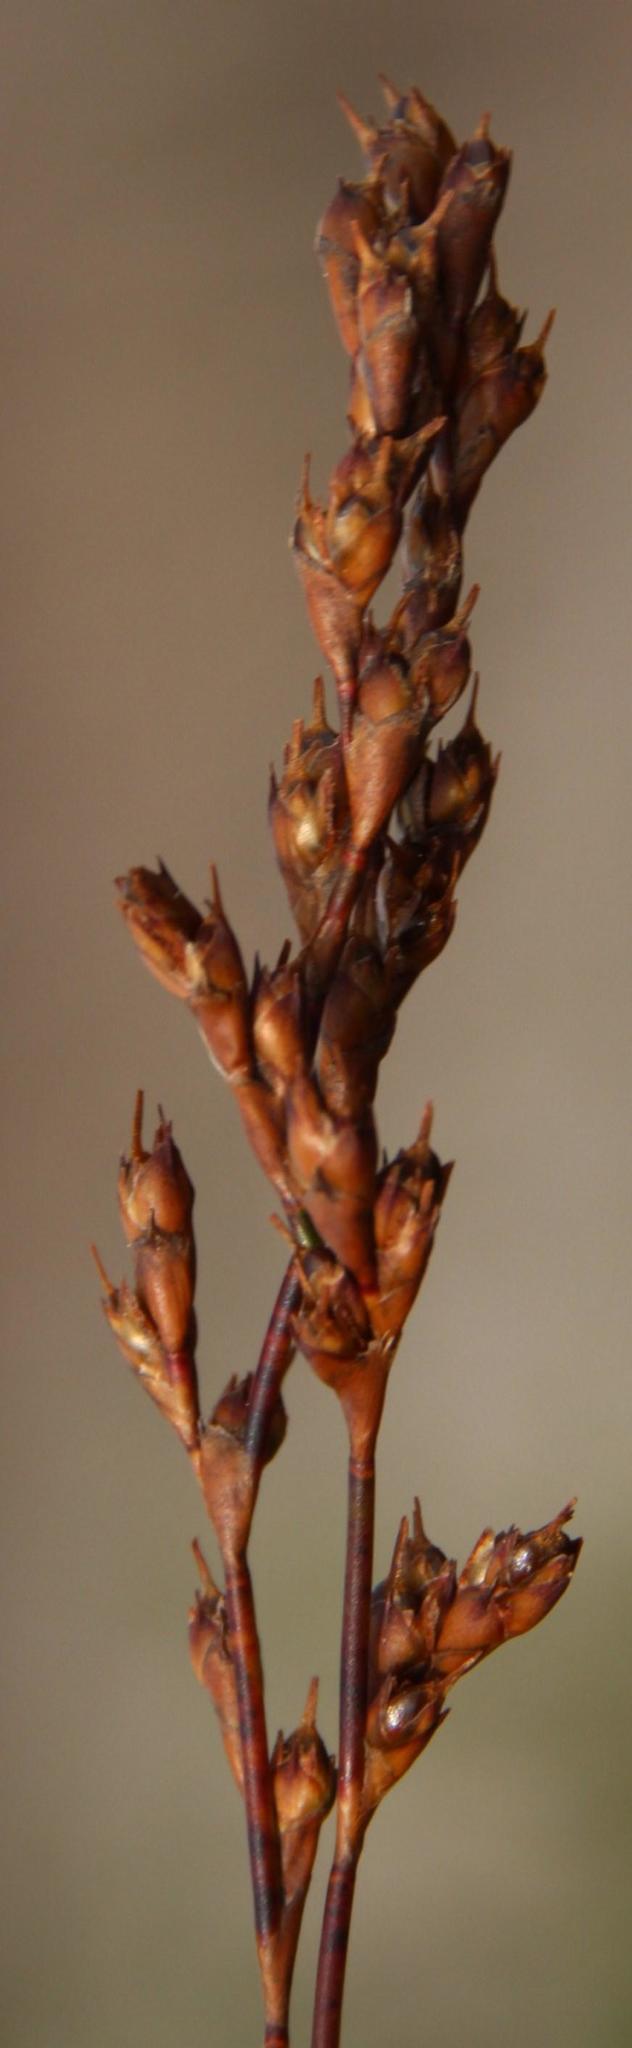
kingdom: Plantae
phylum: Tracheophyta
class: Liliopsida
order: Poales
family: Restionaceae
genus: Restio
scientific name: Restio monanthos
